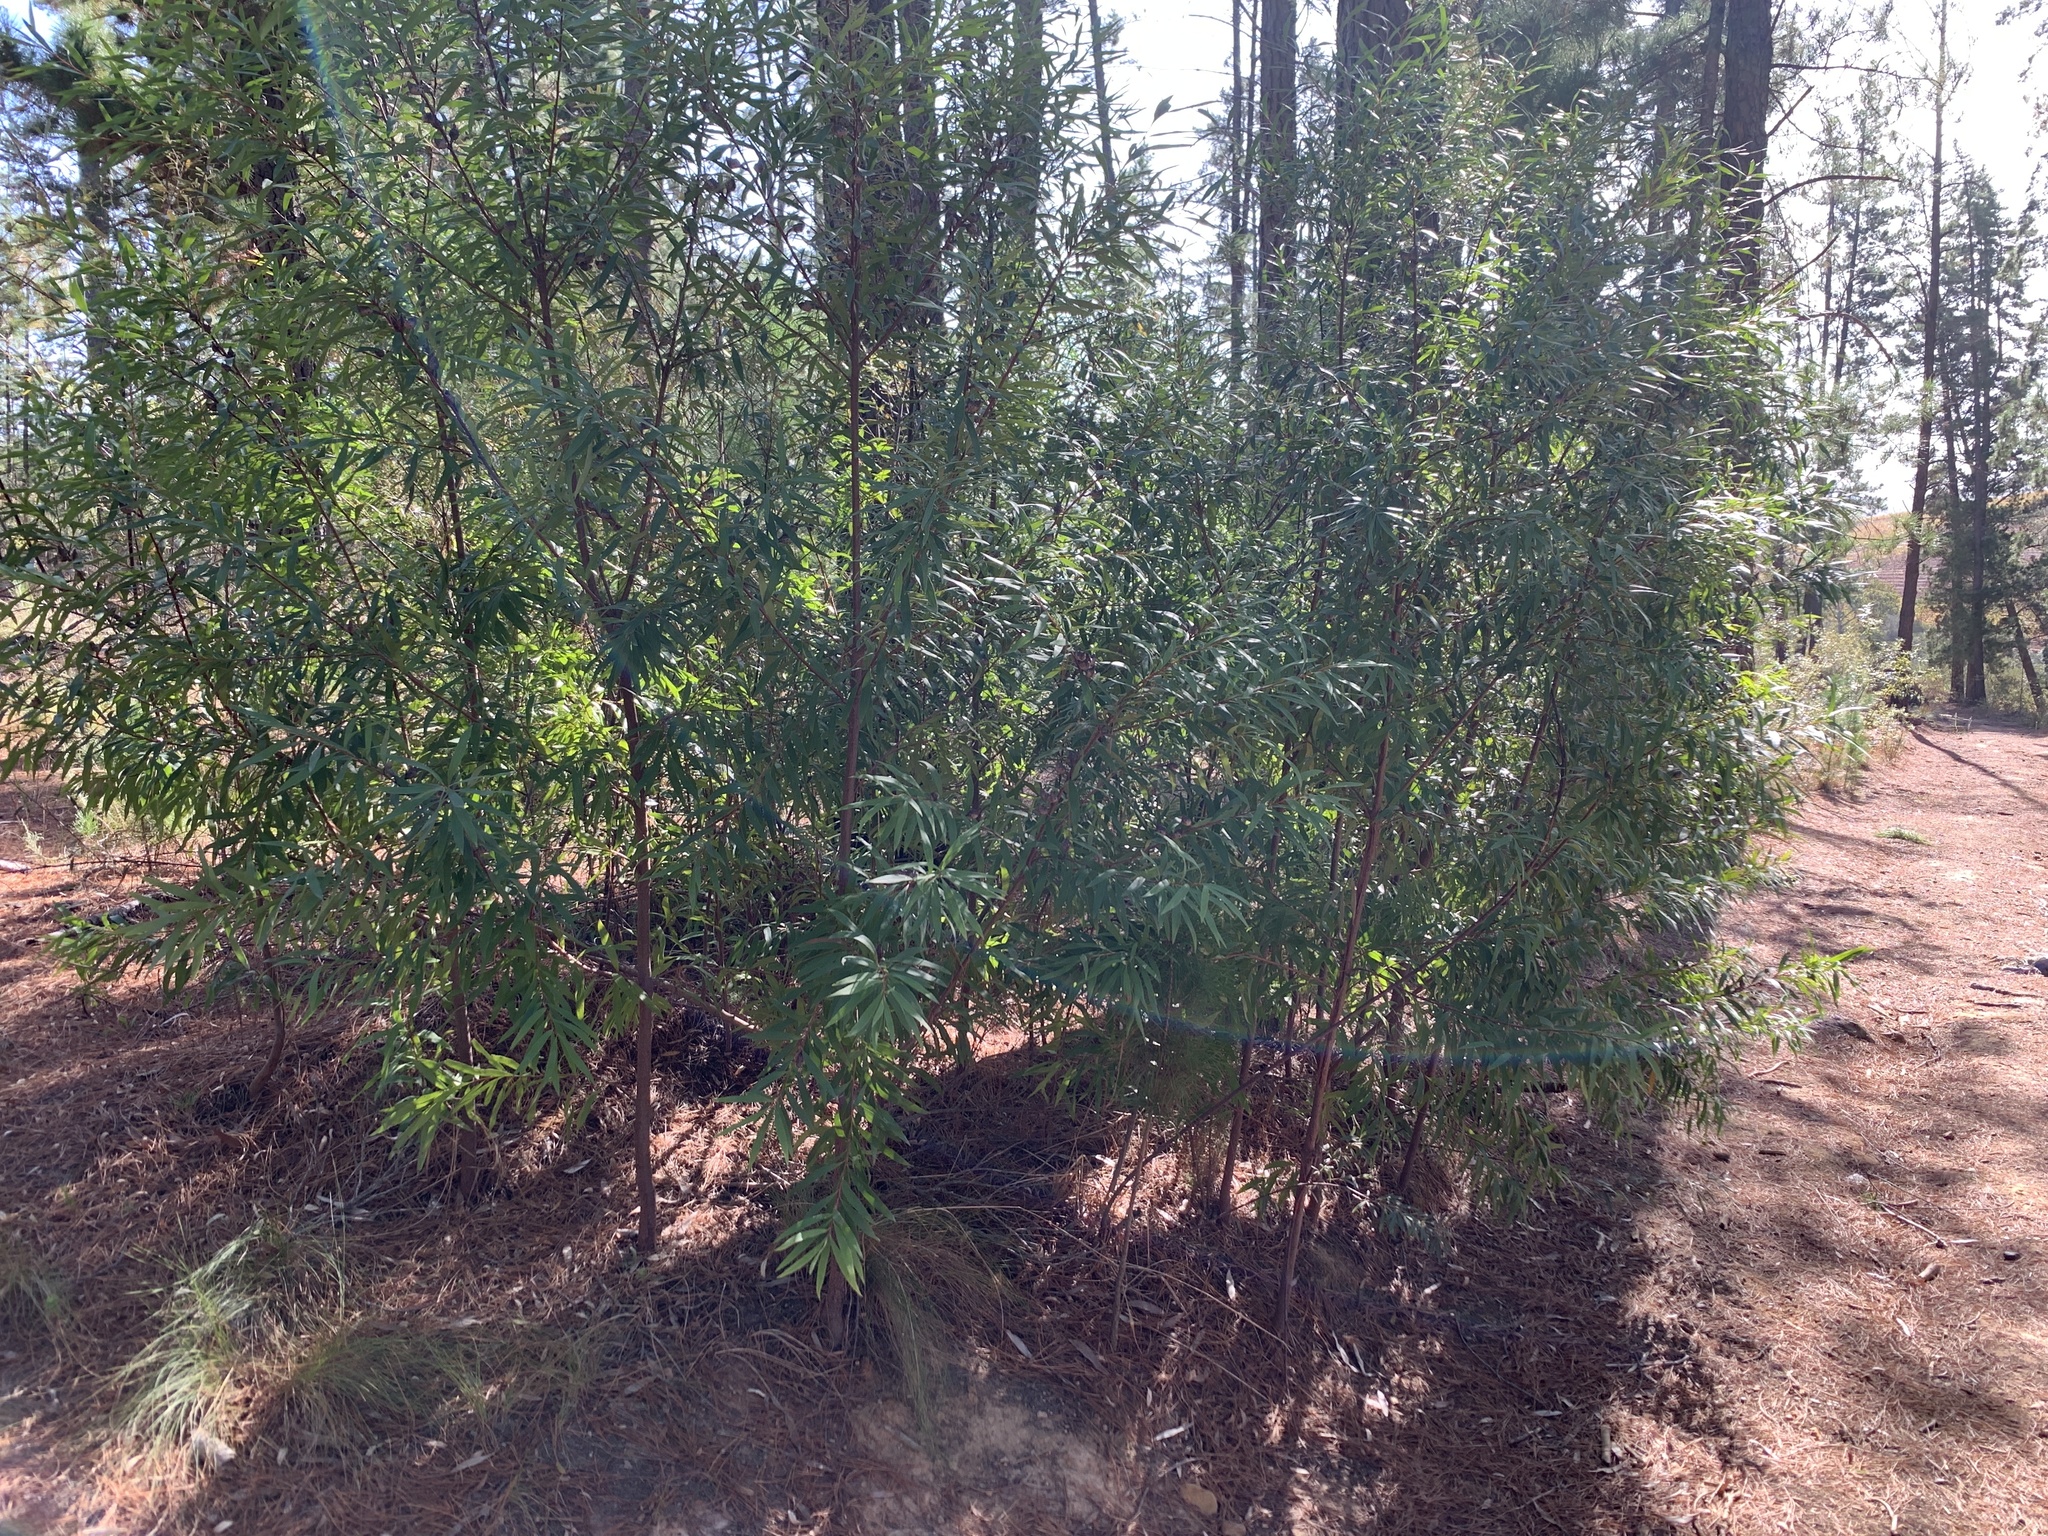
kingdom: Plantae
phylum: Tracheophyta
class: Magnoliopsida
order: Proteales
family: Proteaceae
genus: Hakea
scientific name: Hakea salicifolia
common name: Willow hakea
